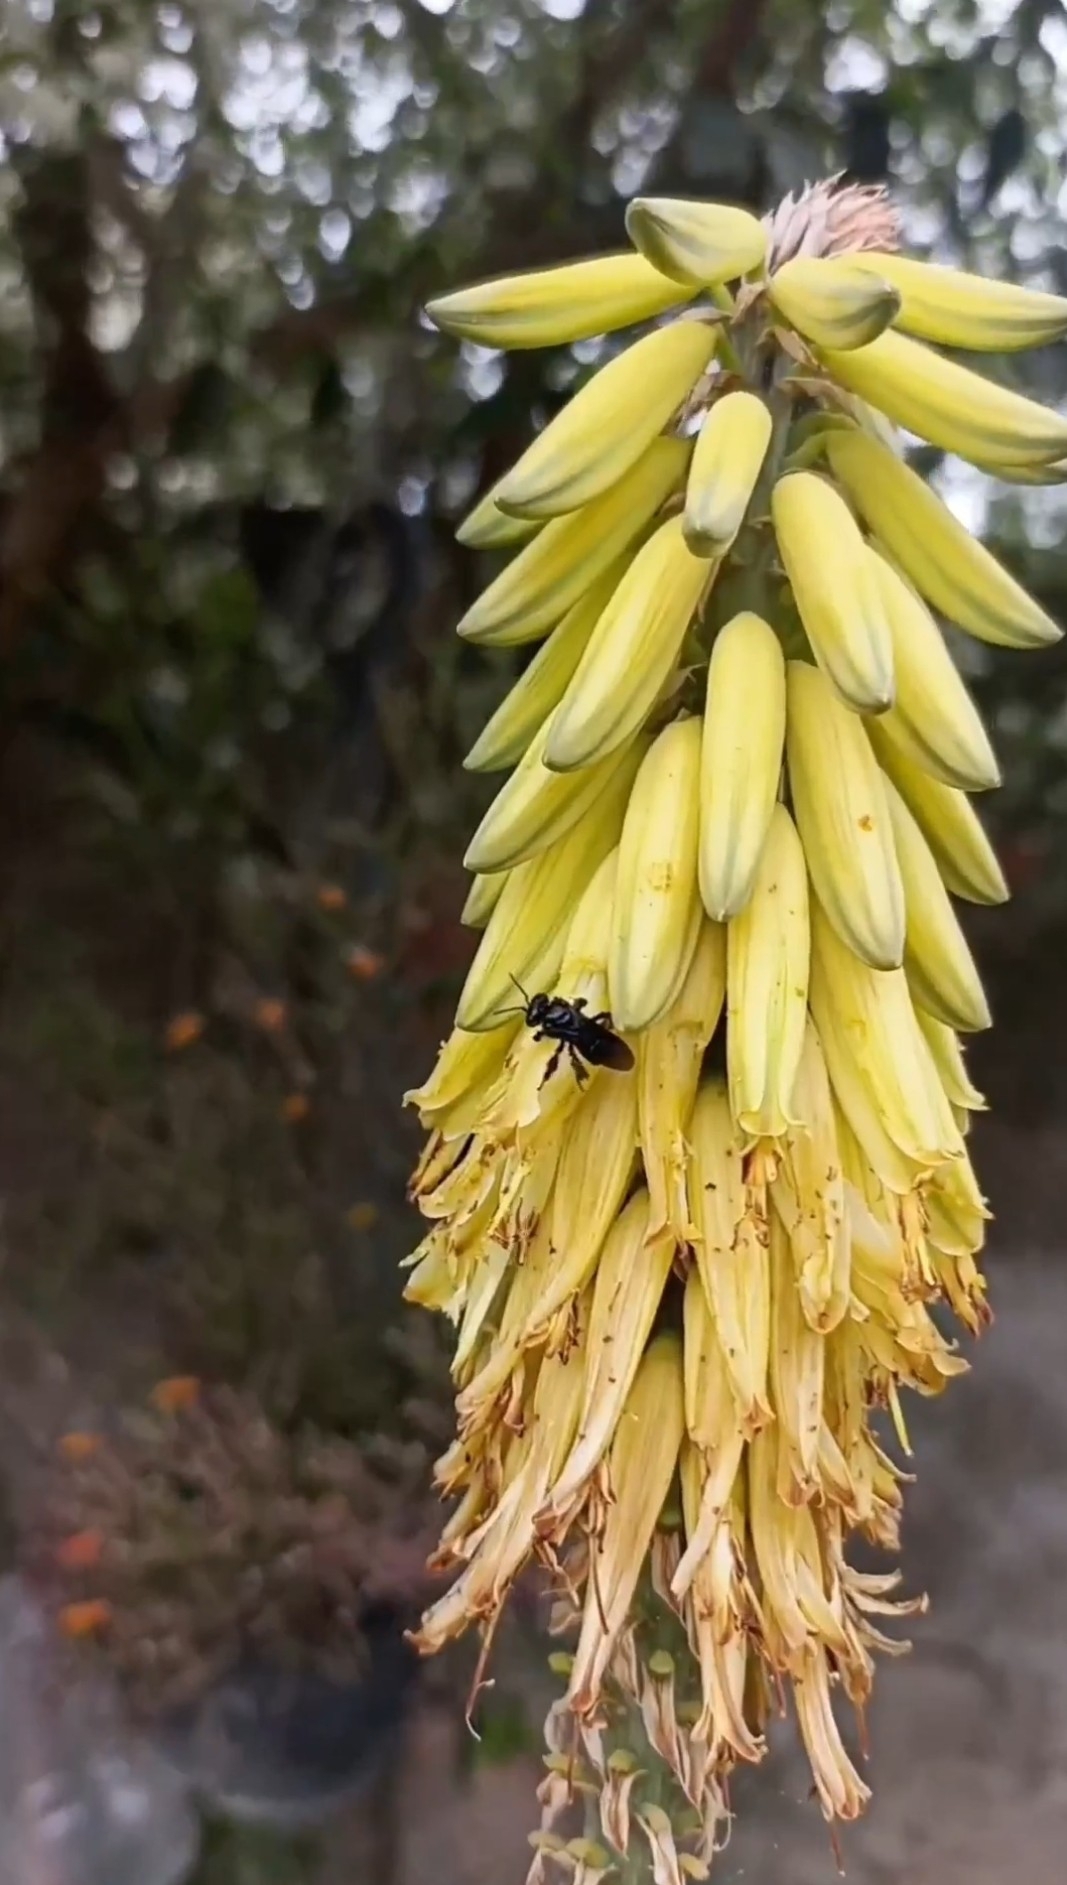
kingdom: Animalia
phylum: Arthropoda
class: Insecta
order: Hymenoptera
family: Apidae
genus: Trigona
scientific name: Trigona spinipes
